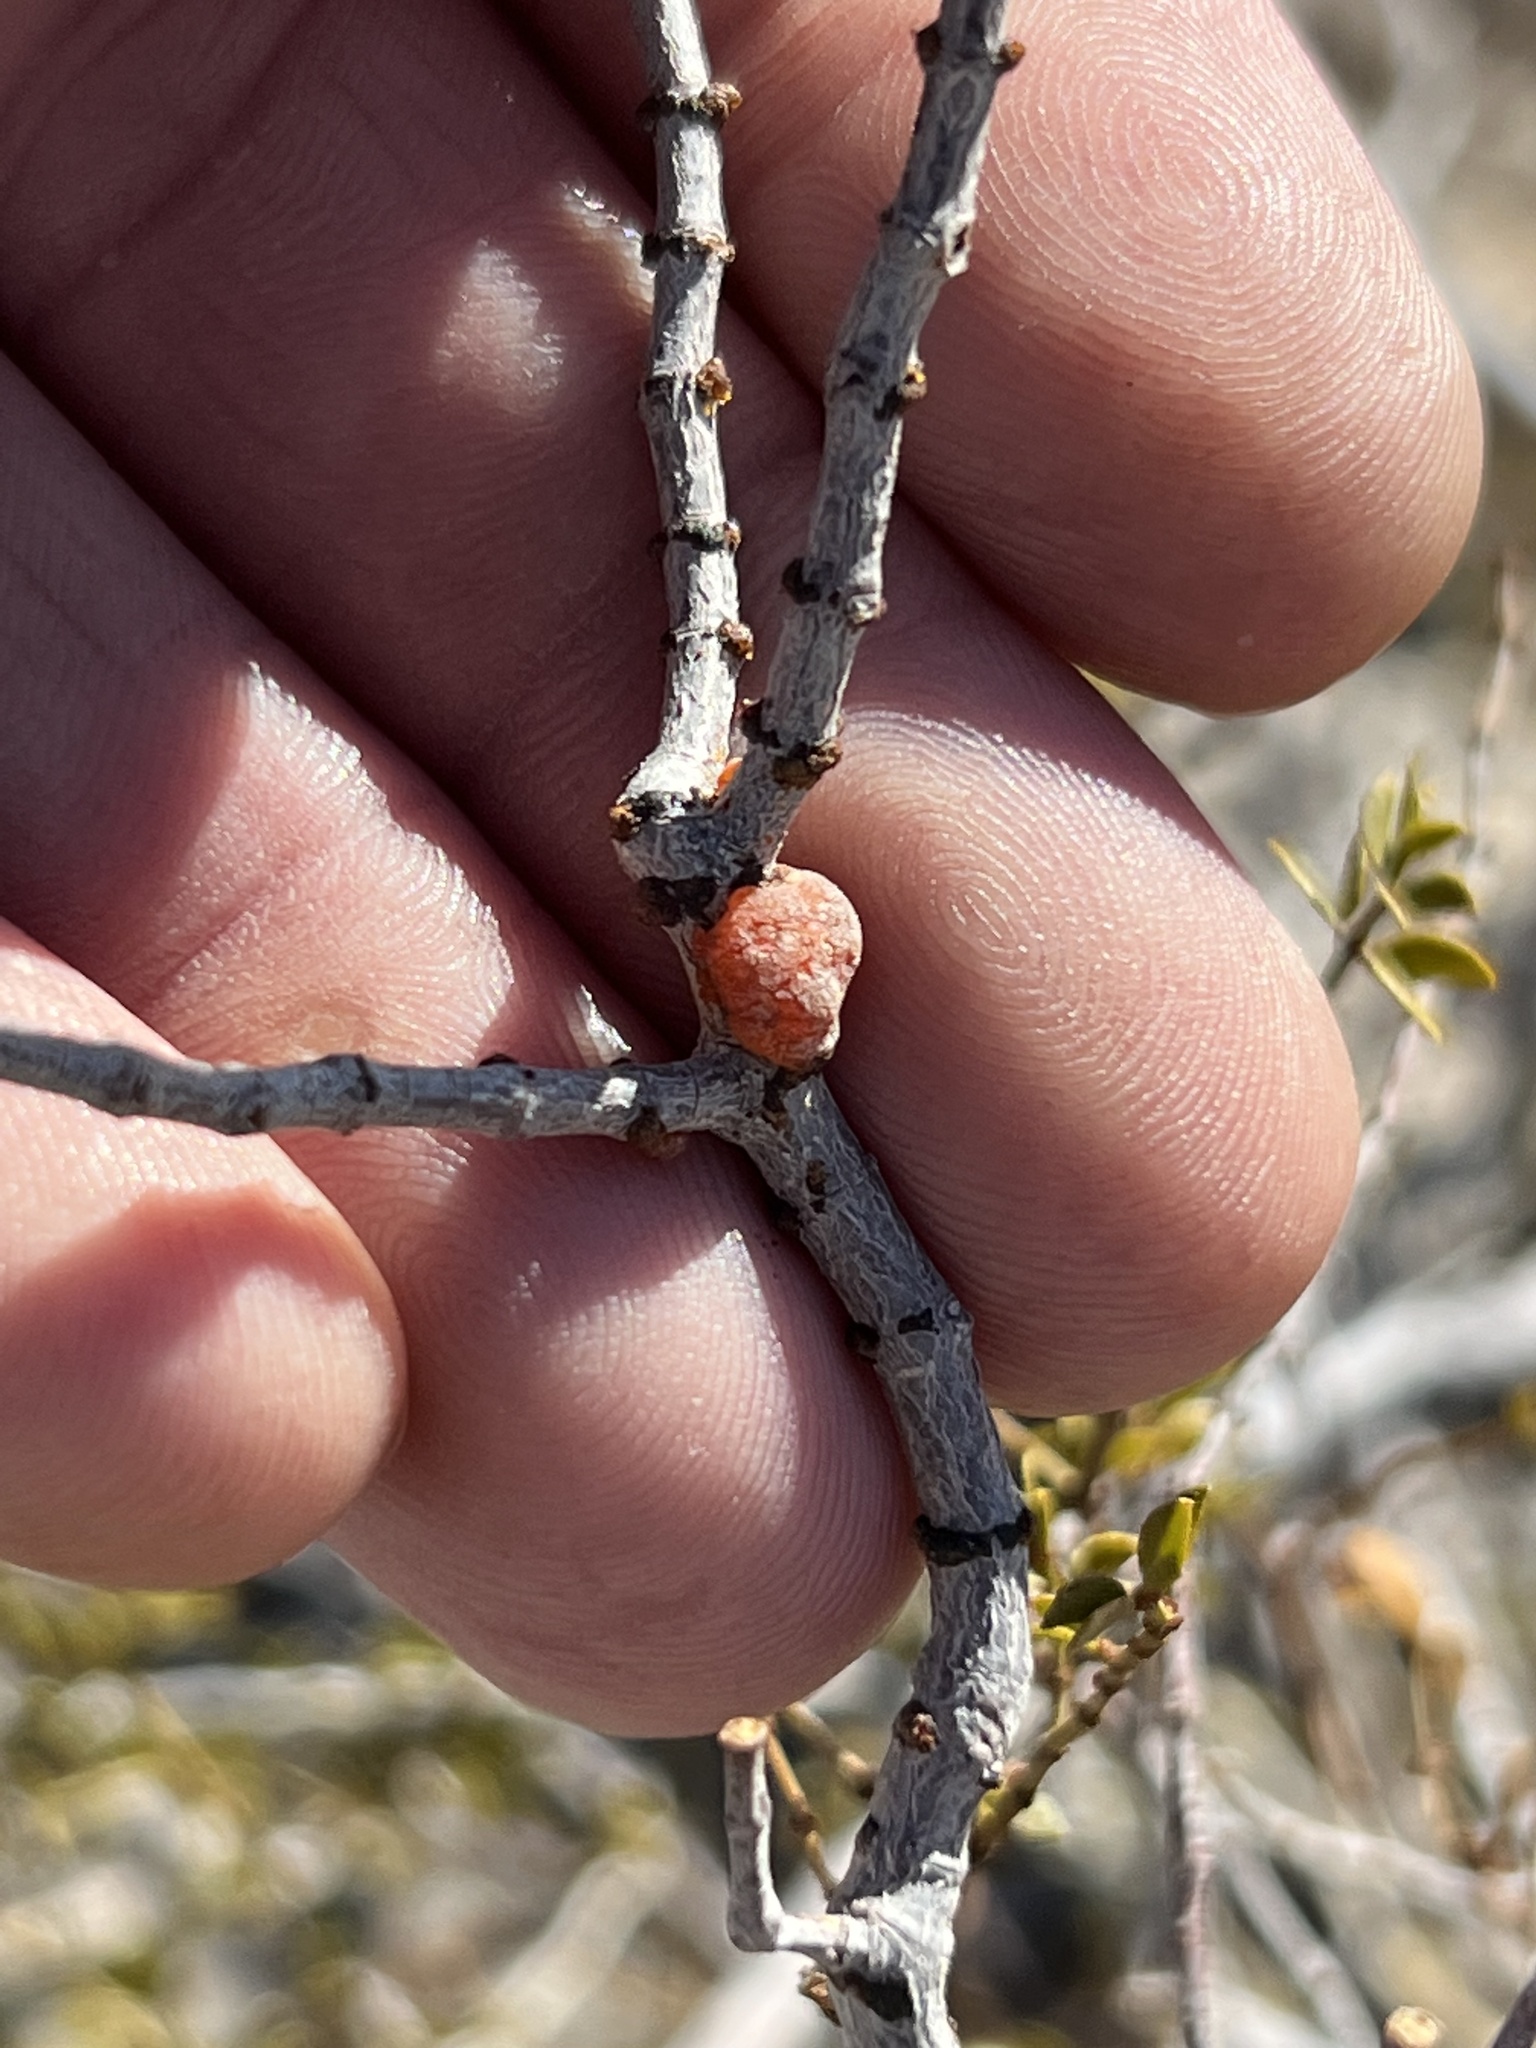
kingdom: Animalia
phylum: Arthropoda
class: Insecta
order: Hemiptera
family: Kerriidae
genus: Tachardiella
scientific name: Tachardiella larreae
